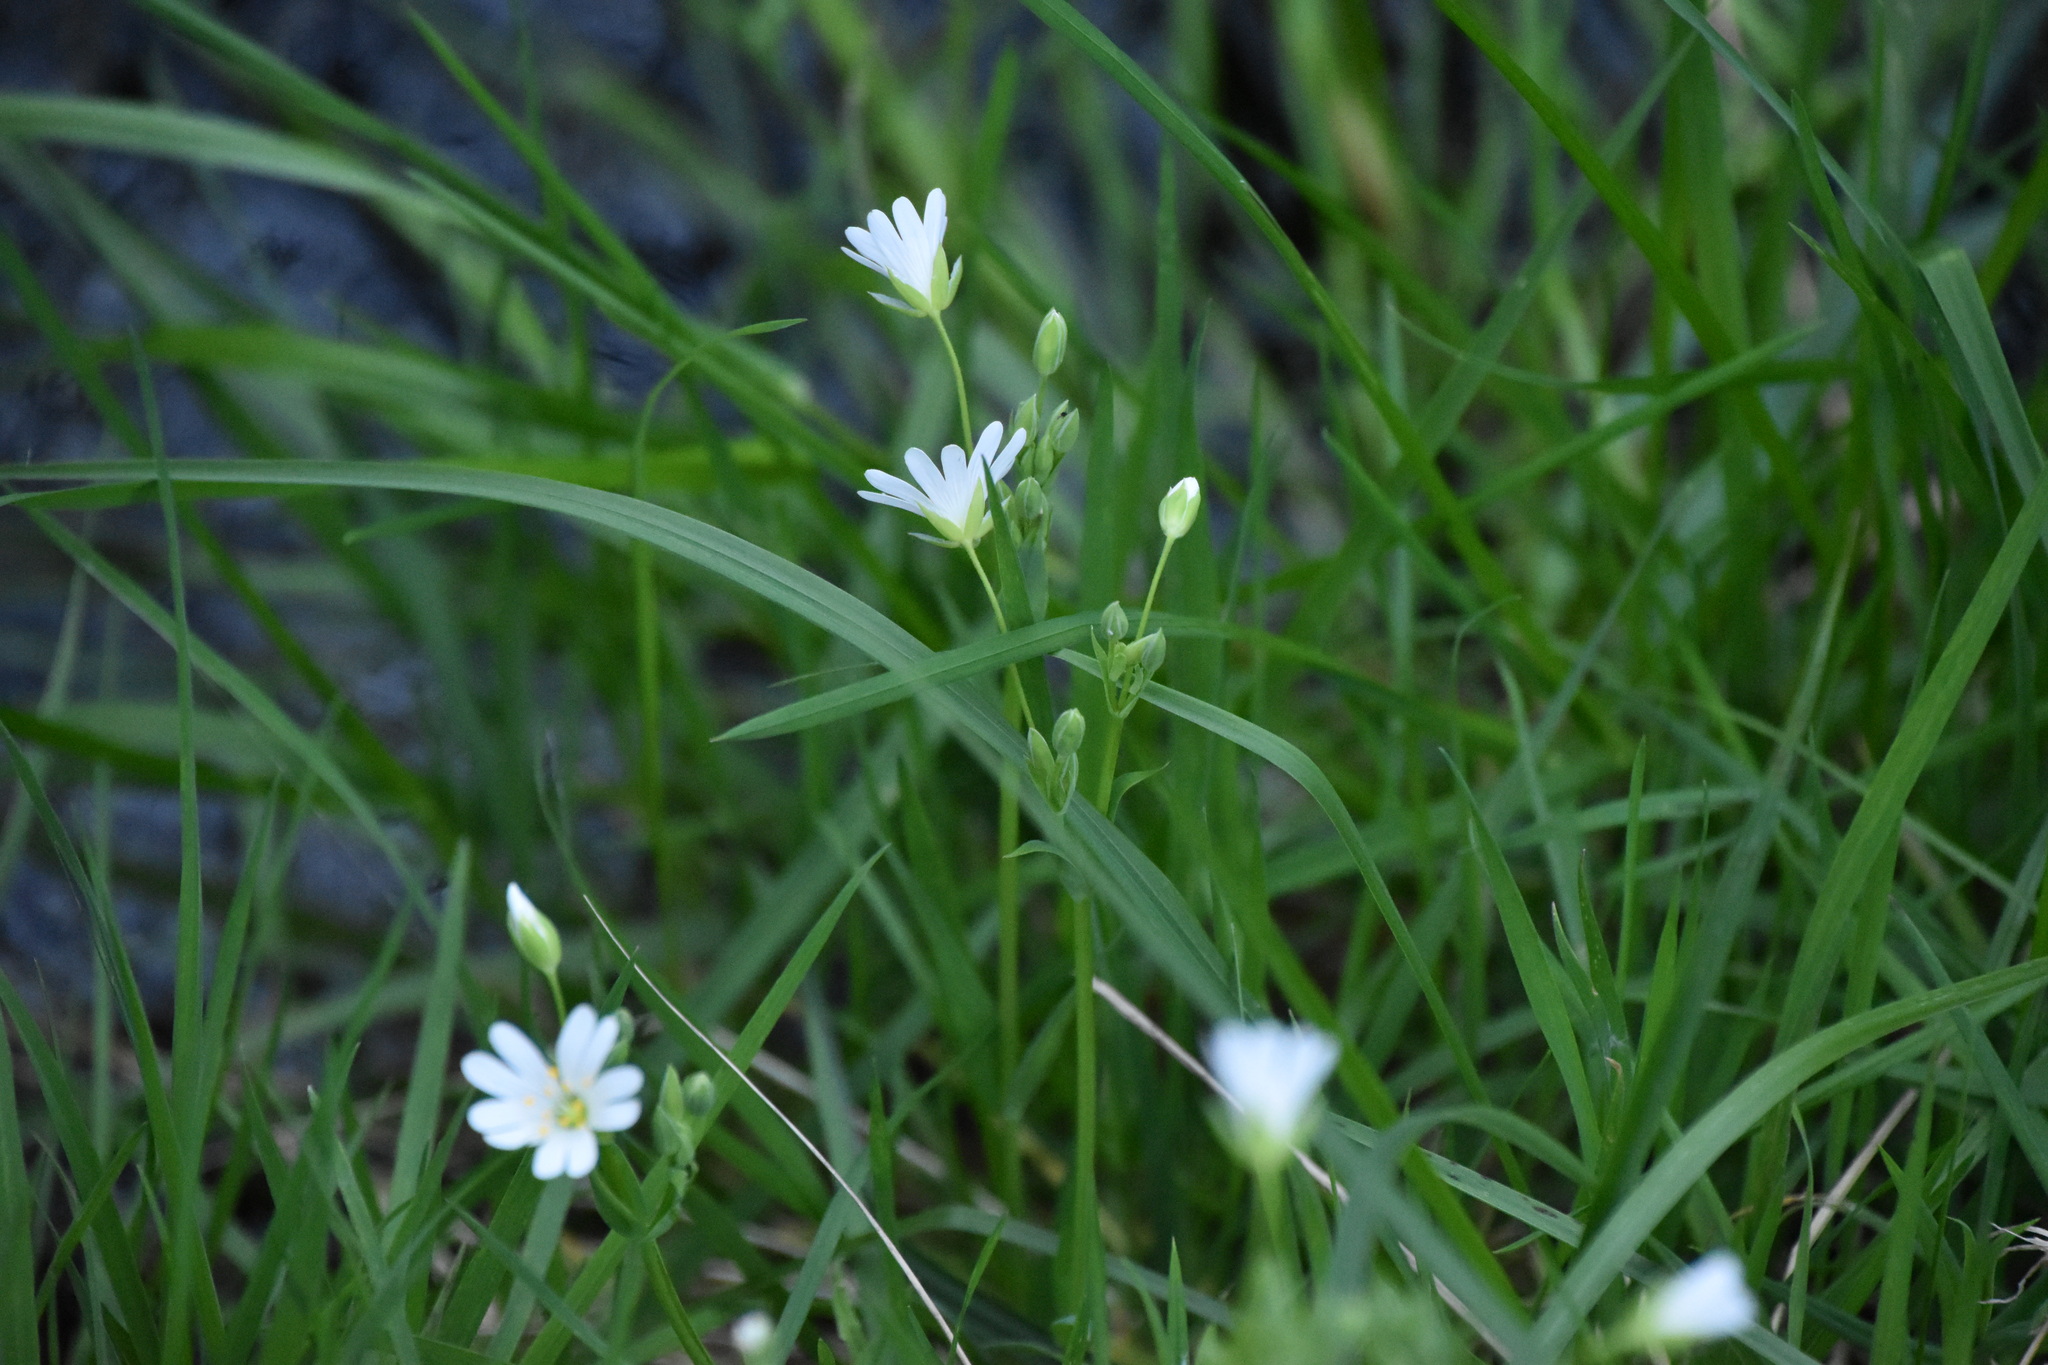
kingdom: Plantae
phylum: Tracheophyta
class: Magnoliopsida
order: Caryophyllales
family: Caryophyllaceae
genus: Rabelera
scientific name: Rabelera holostea
